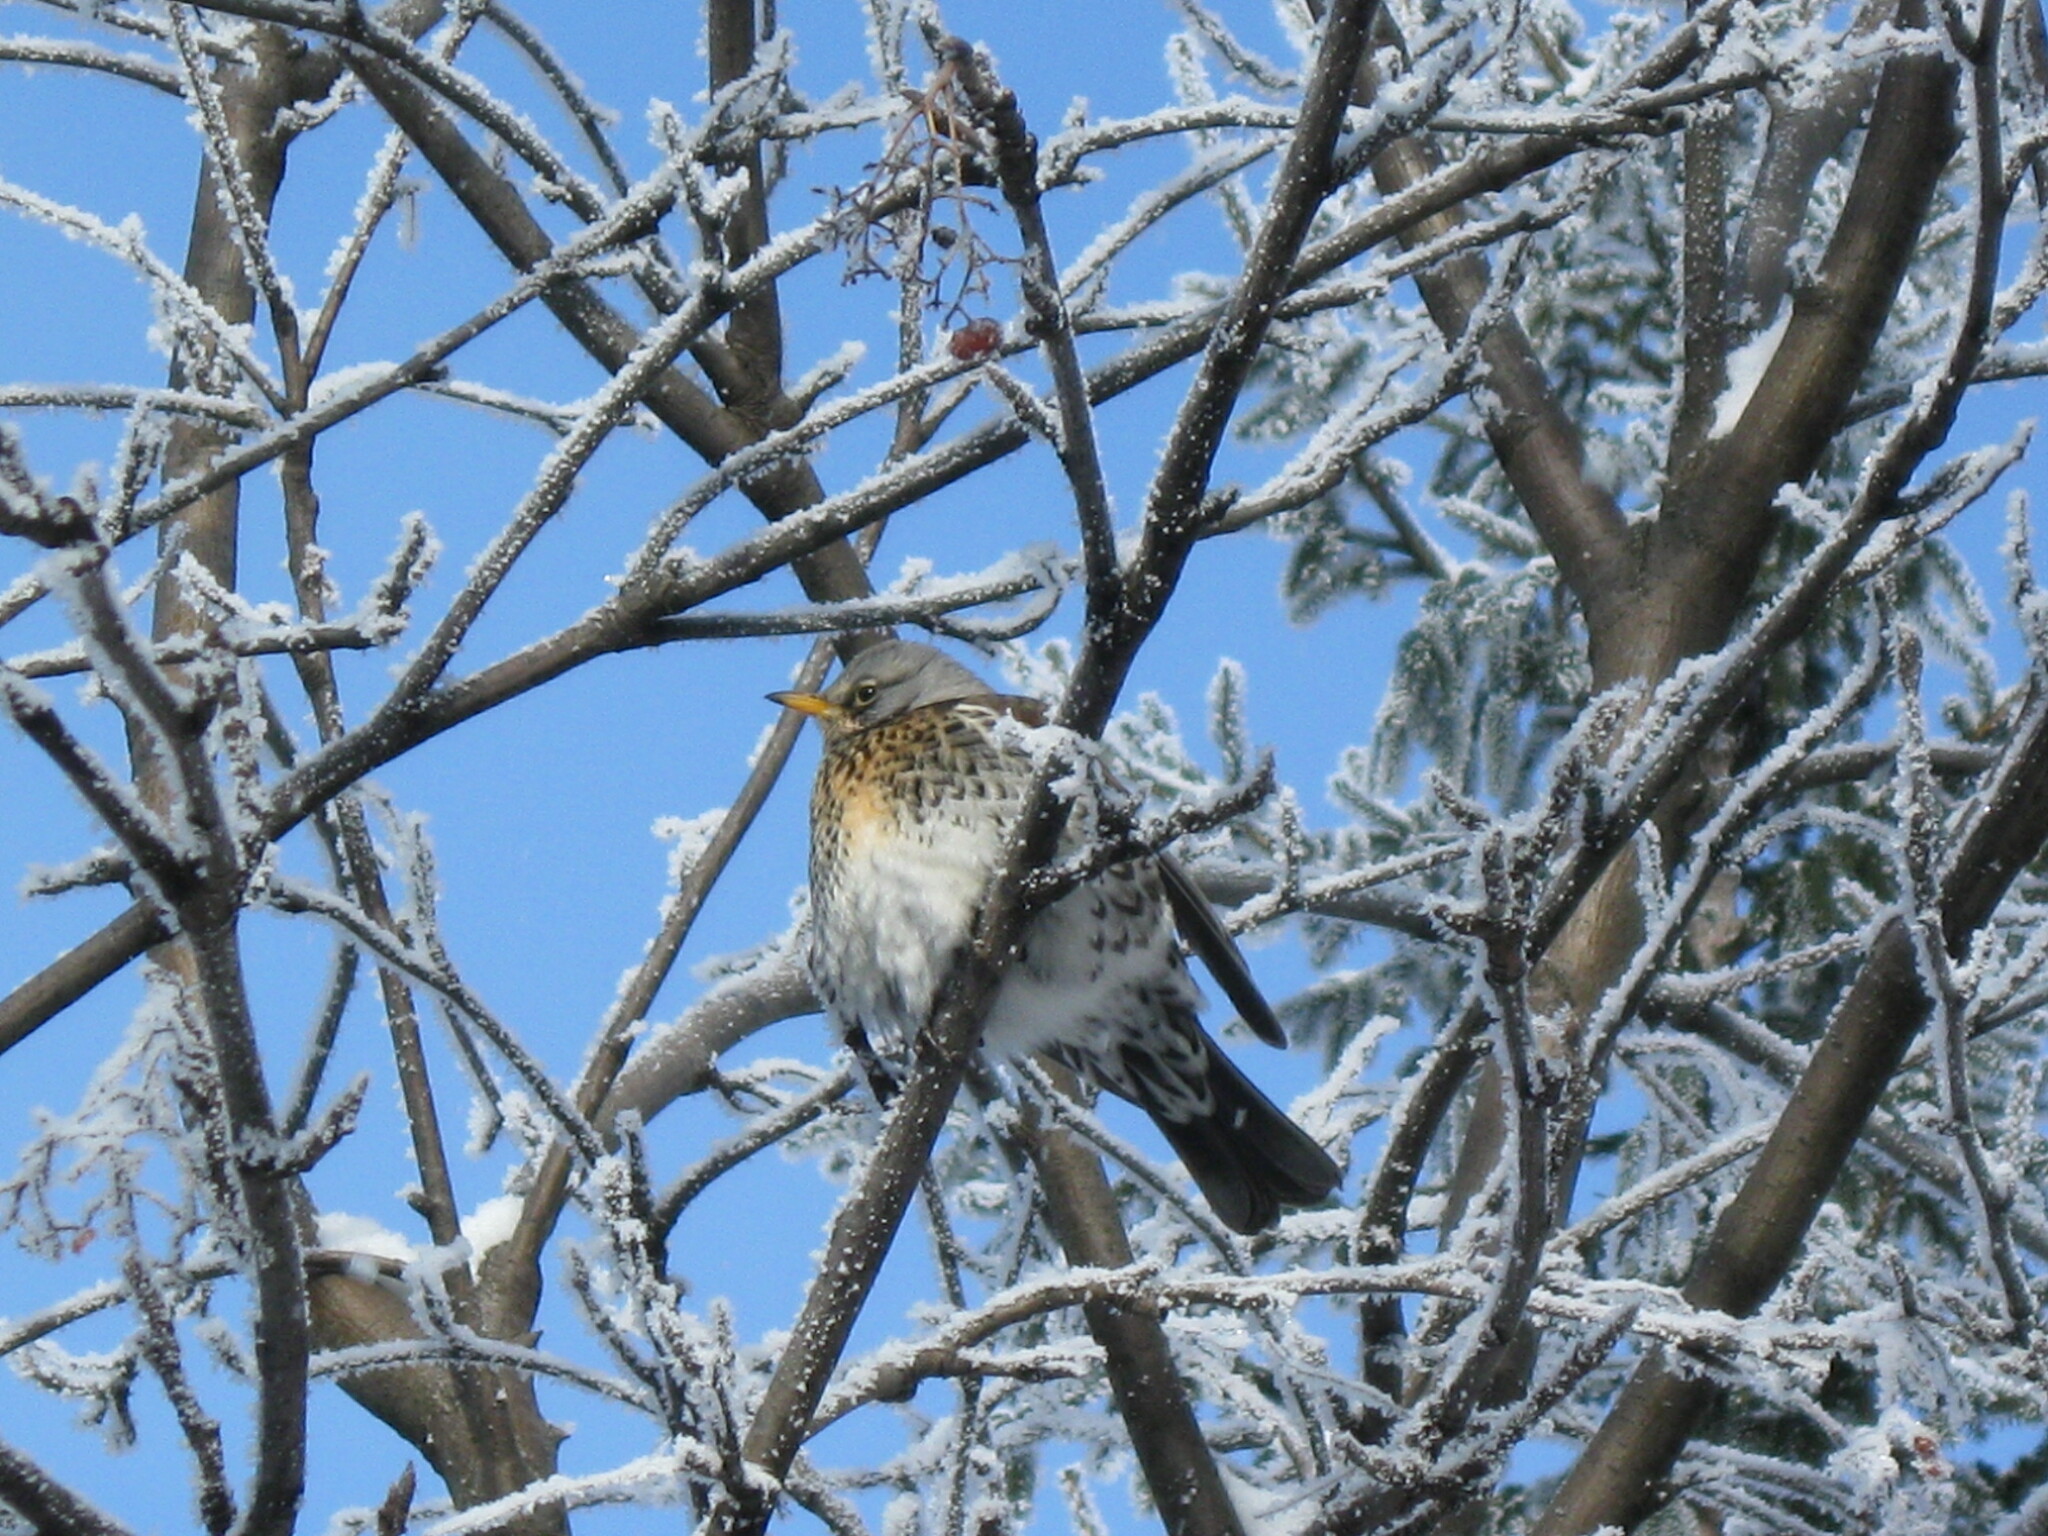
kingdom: Animalia
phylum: Chordata
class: Aves
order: Passeriformes
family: Turdidae
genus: Turdus
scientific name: Turdus pilaris
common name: Fieldfare
